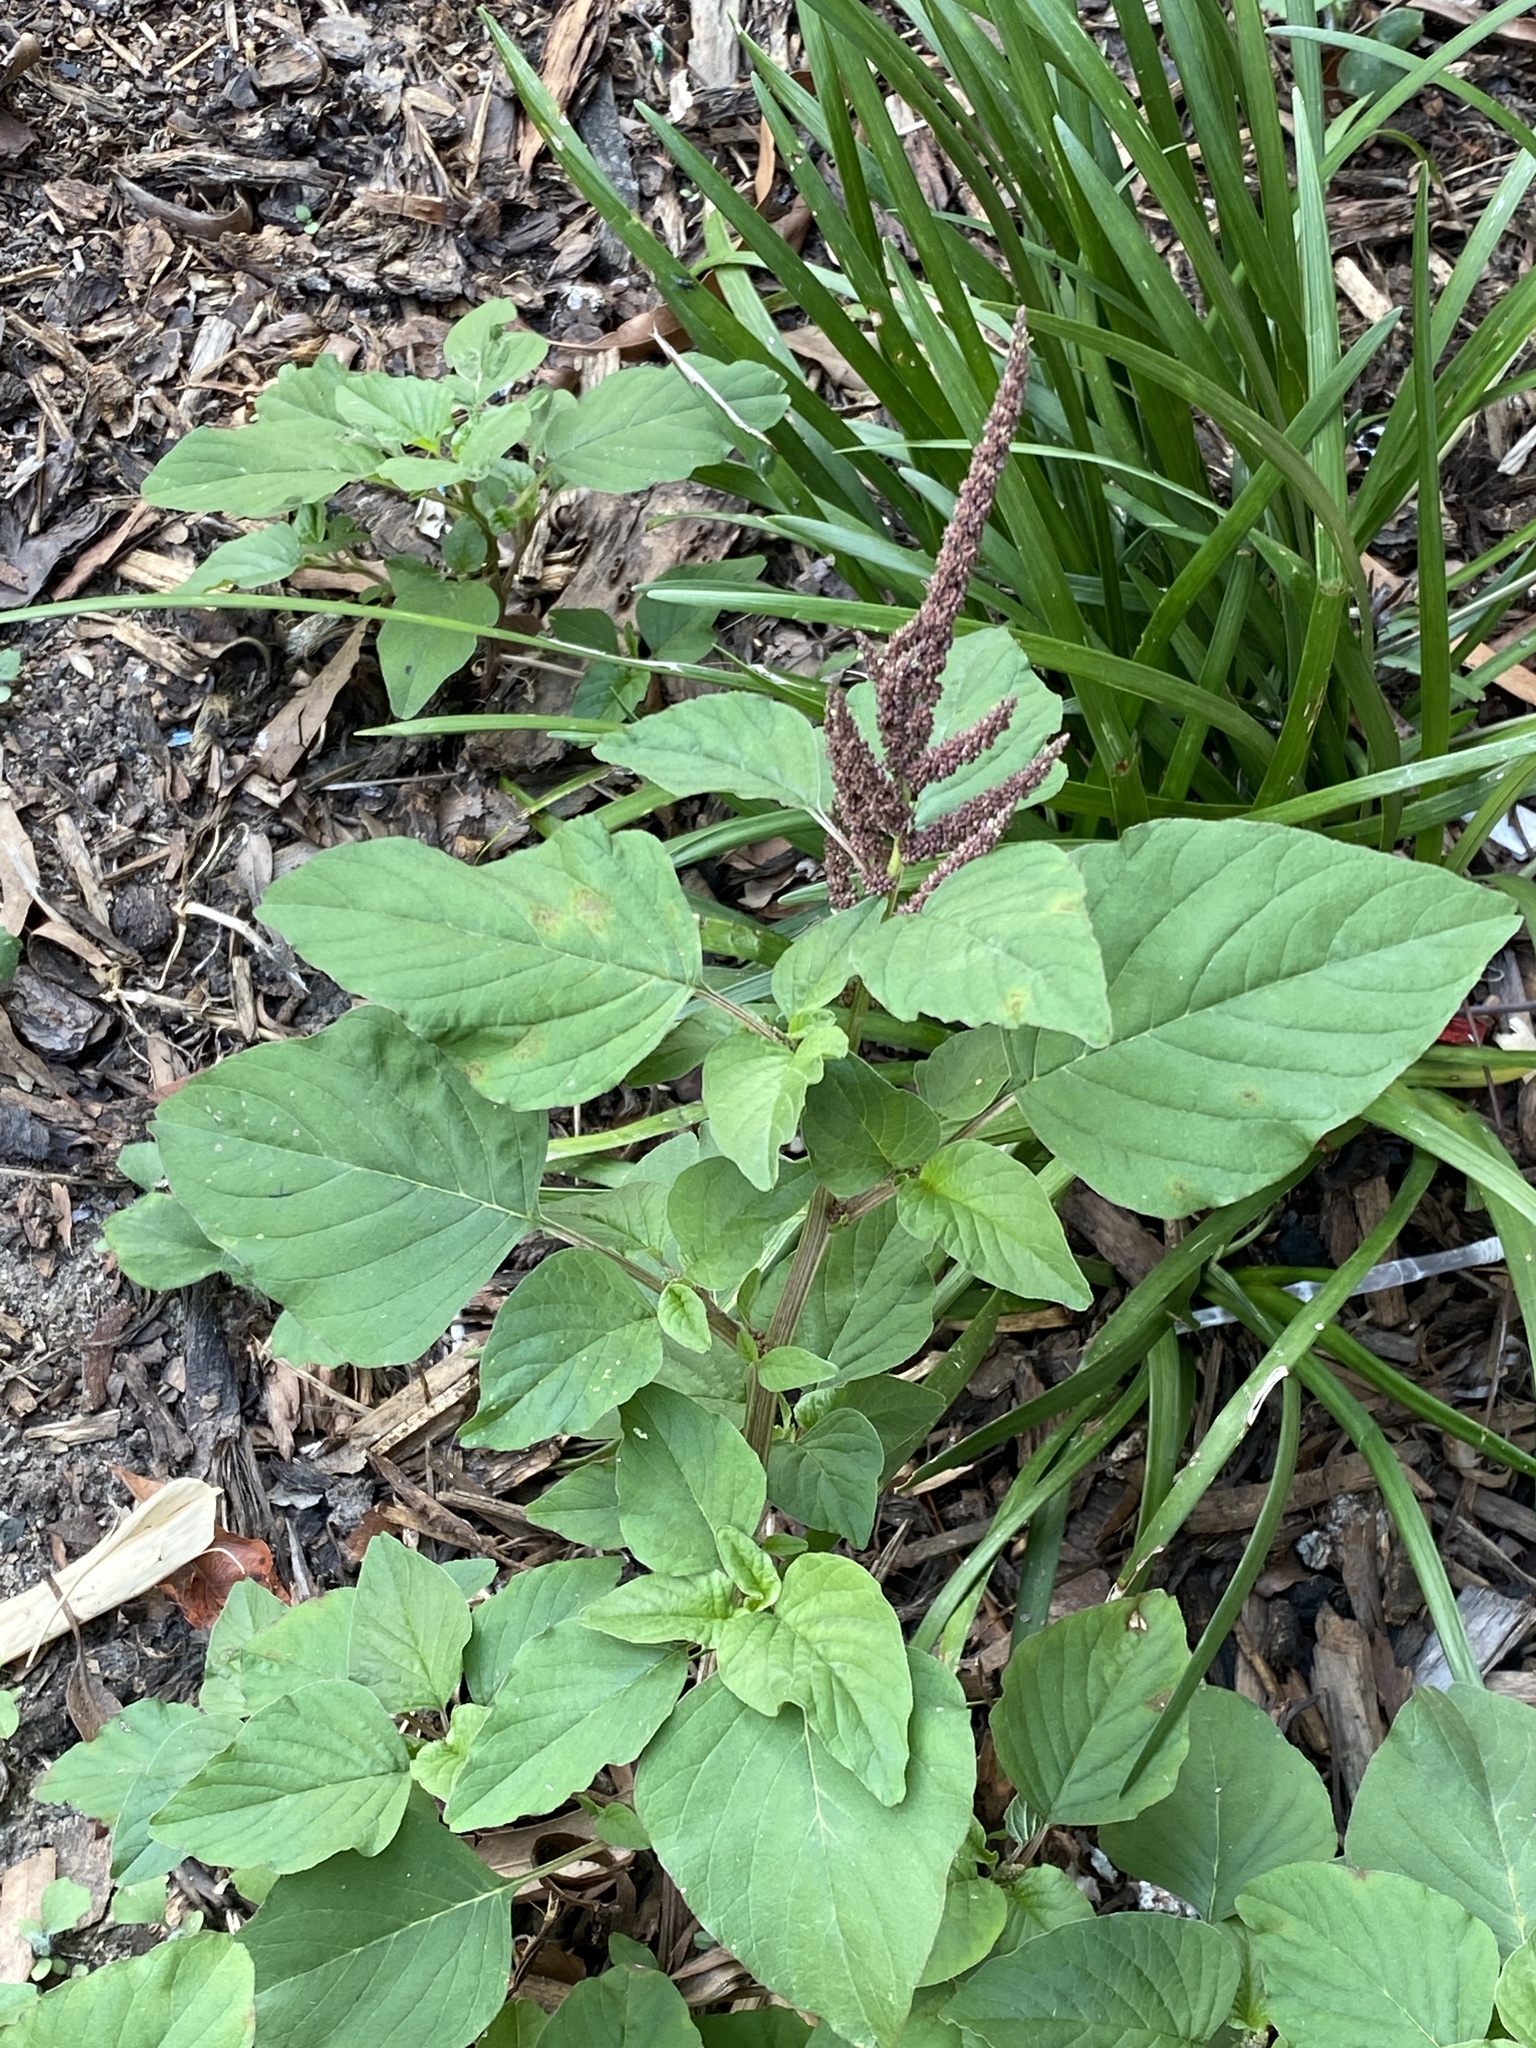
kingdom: Plantae
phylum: Tracheophyta
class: Magnoliopsida
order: Caryophyllales
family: Amaranthaceae
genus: Amaranthus
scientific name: Amaranthus viridis
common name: Slender amaranth
